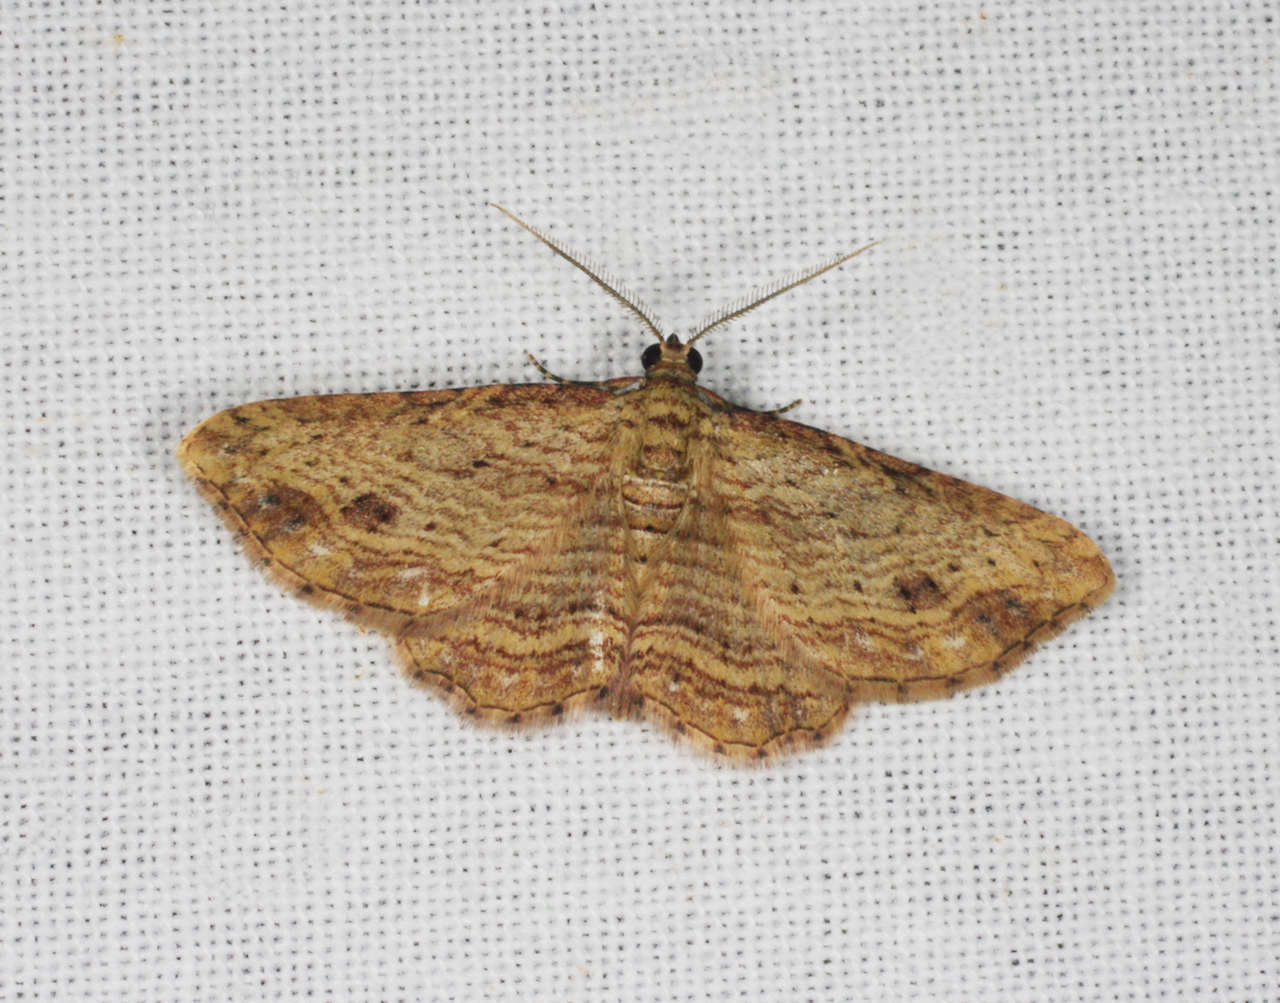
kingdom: Animalia
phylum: Arthropoda
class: Insecta
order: Lepidoptera
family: Geometridae
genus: Xanthorhoe
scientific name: Xanthorhoe anaspila
